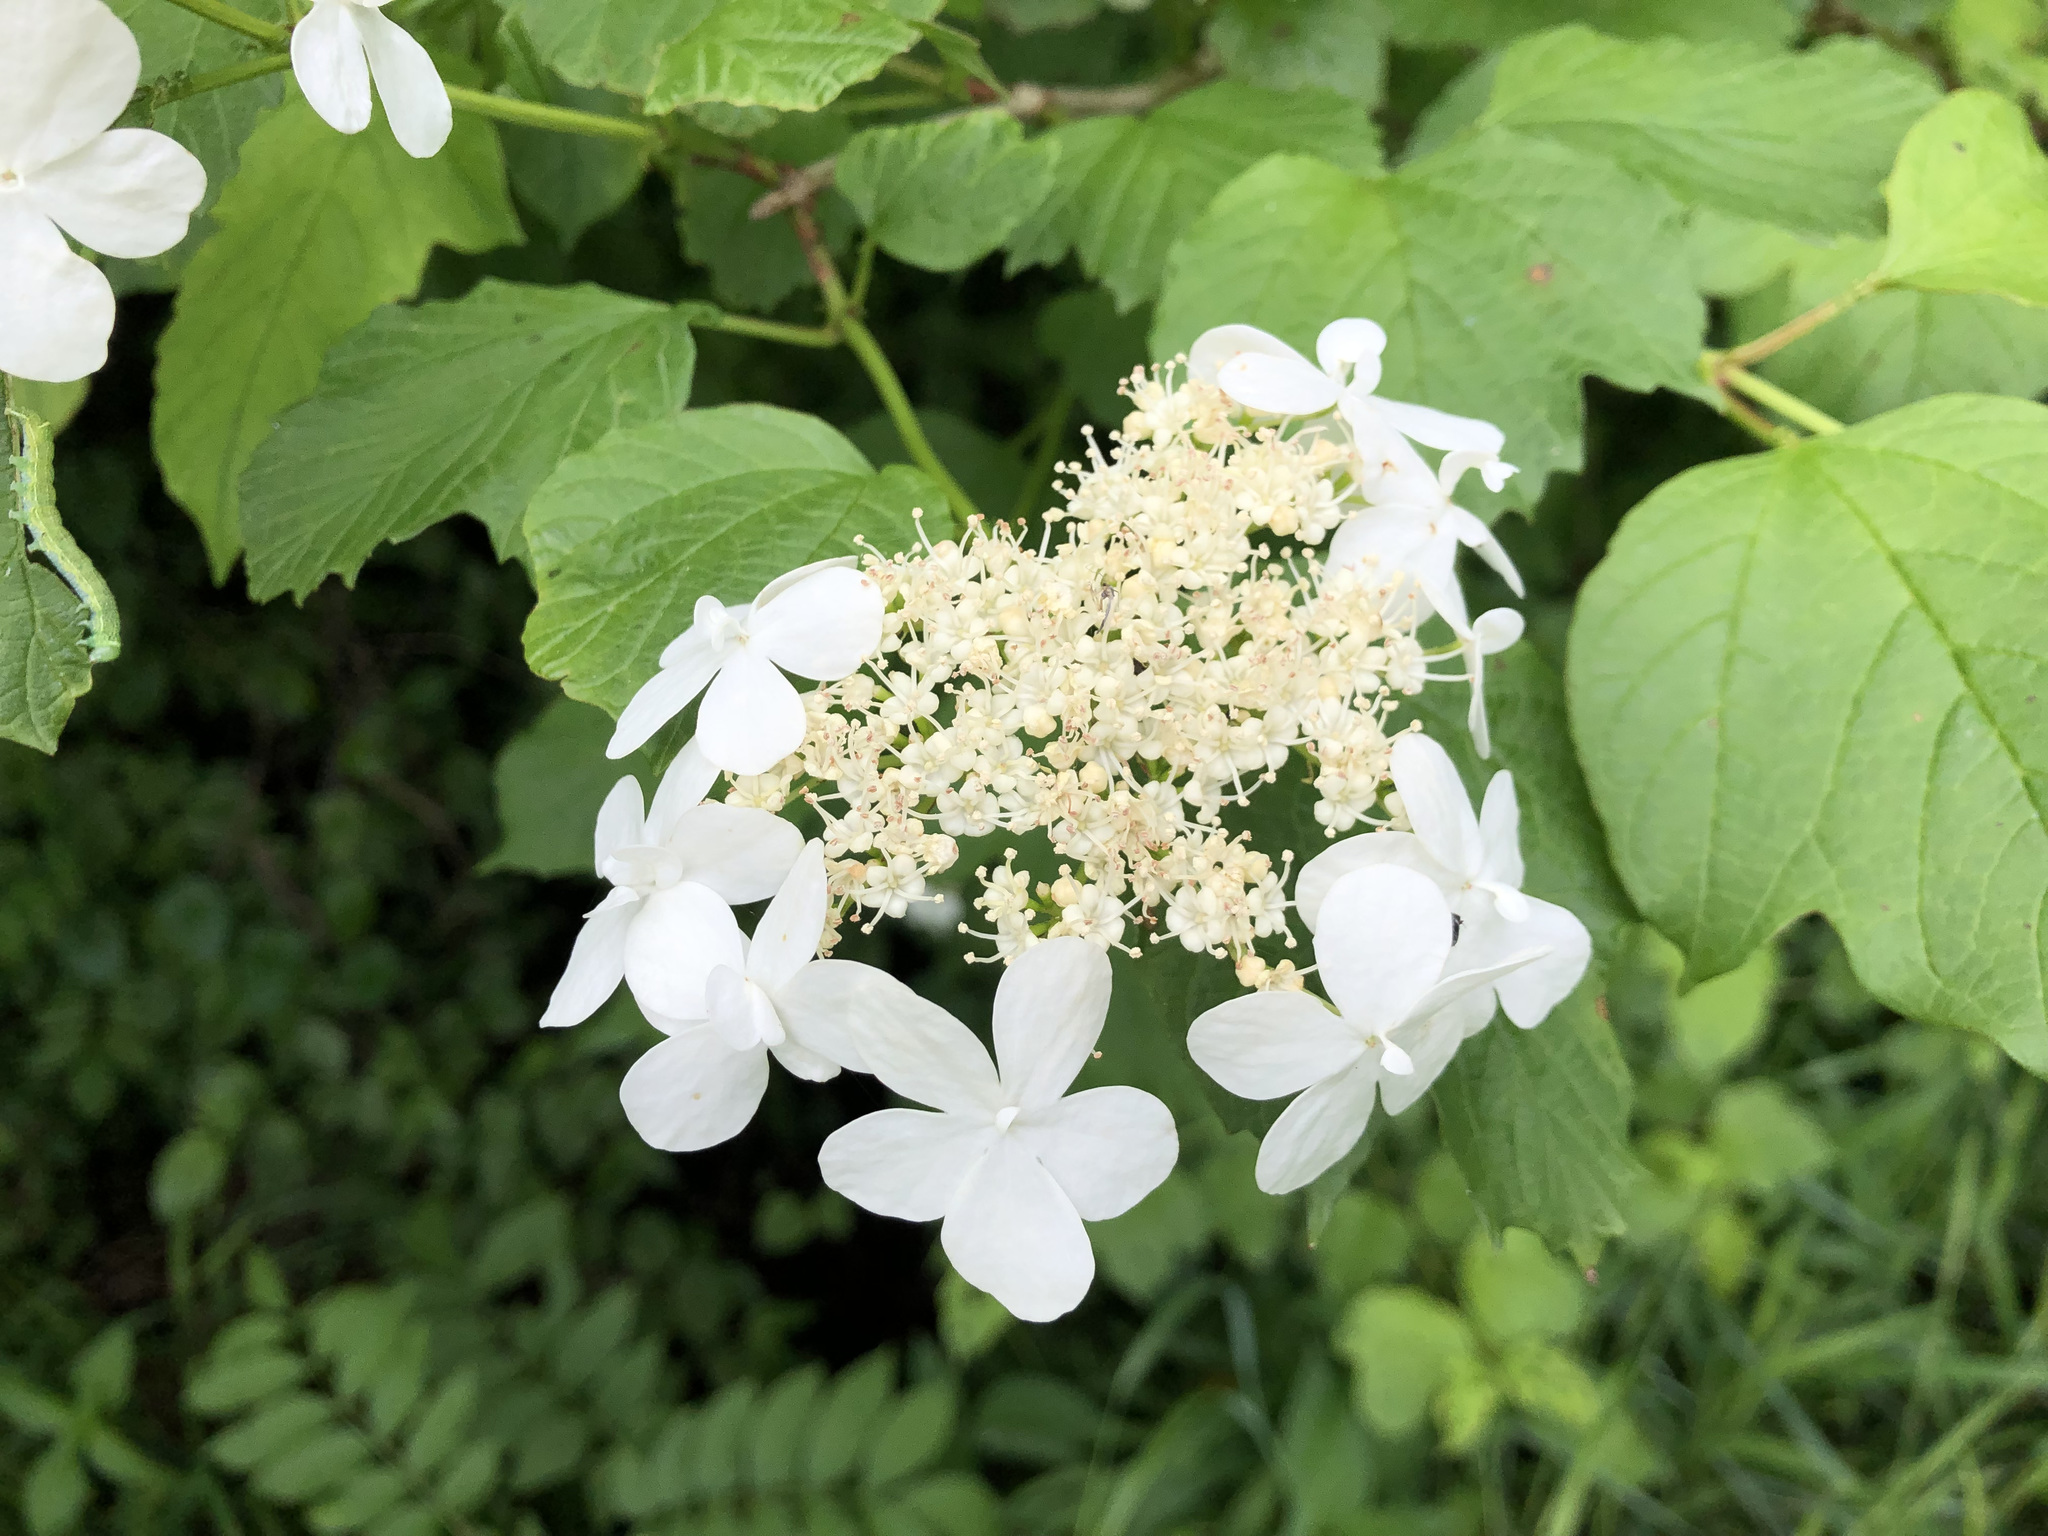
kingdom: Plantae
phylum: Tracheophyta
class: Magnoliopsida
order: Dipsacales
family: Viburnaceae
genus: Viburnum
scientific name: Viburnum opulus
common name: Guelder-rose
